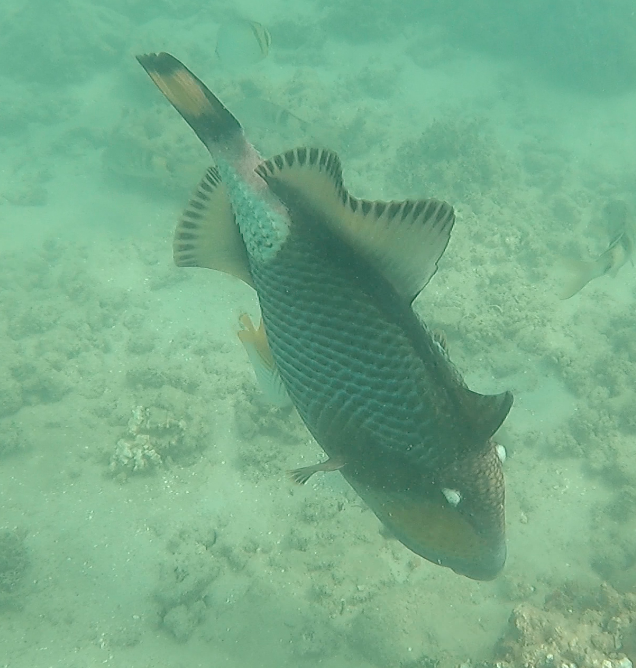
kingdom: Animalia
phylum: Chordata
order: Tetraodontiformes
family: Balistidae
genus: Balistoides
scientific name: Balistoides viridescens
